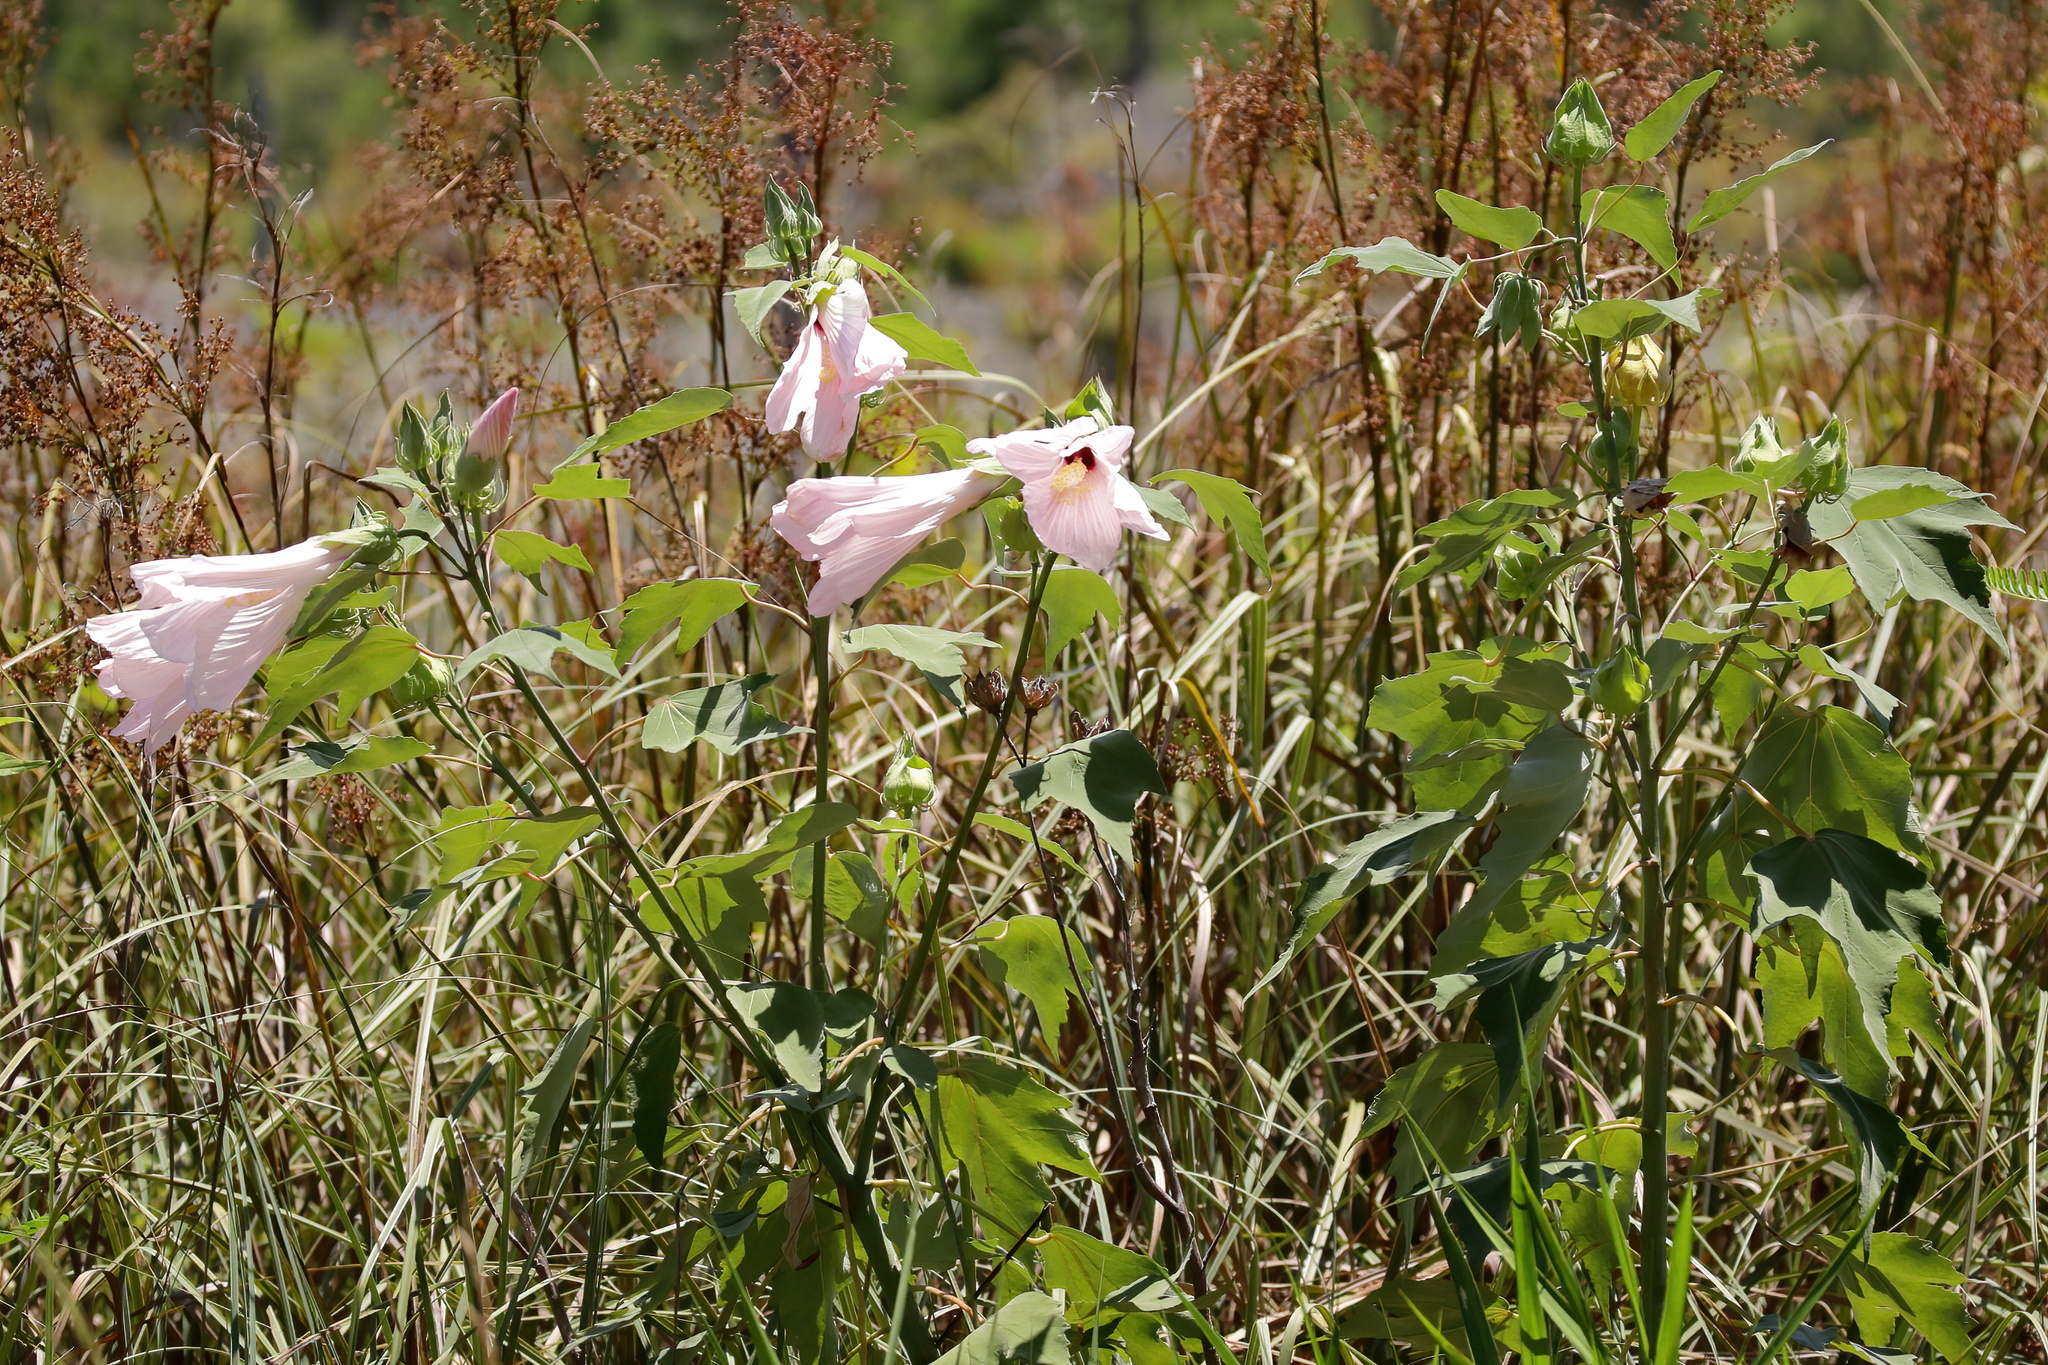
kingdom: Plantae
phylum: Tracheophyta
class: Magnoliopsida
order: Malvales
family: Malvaceae
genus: Hibiscus
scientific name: Hibiscus grandiflorus
